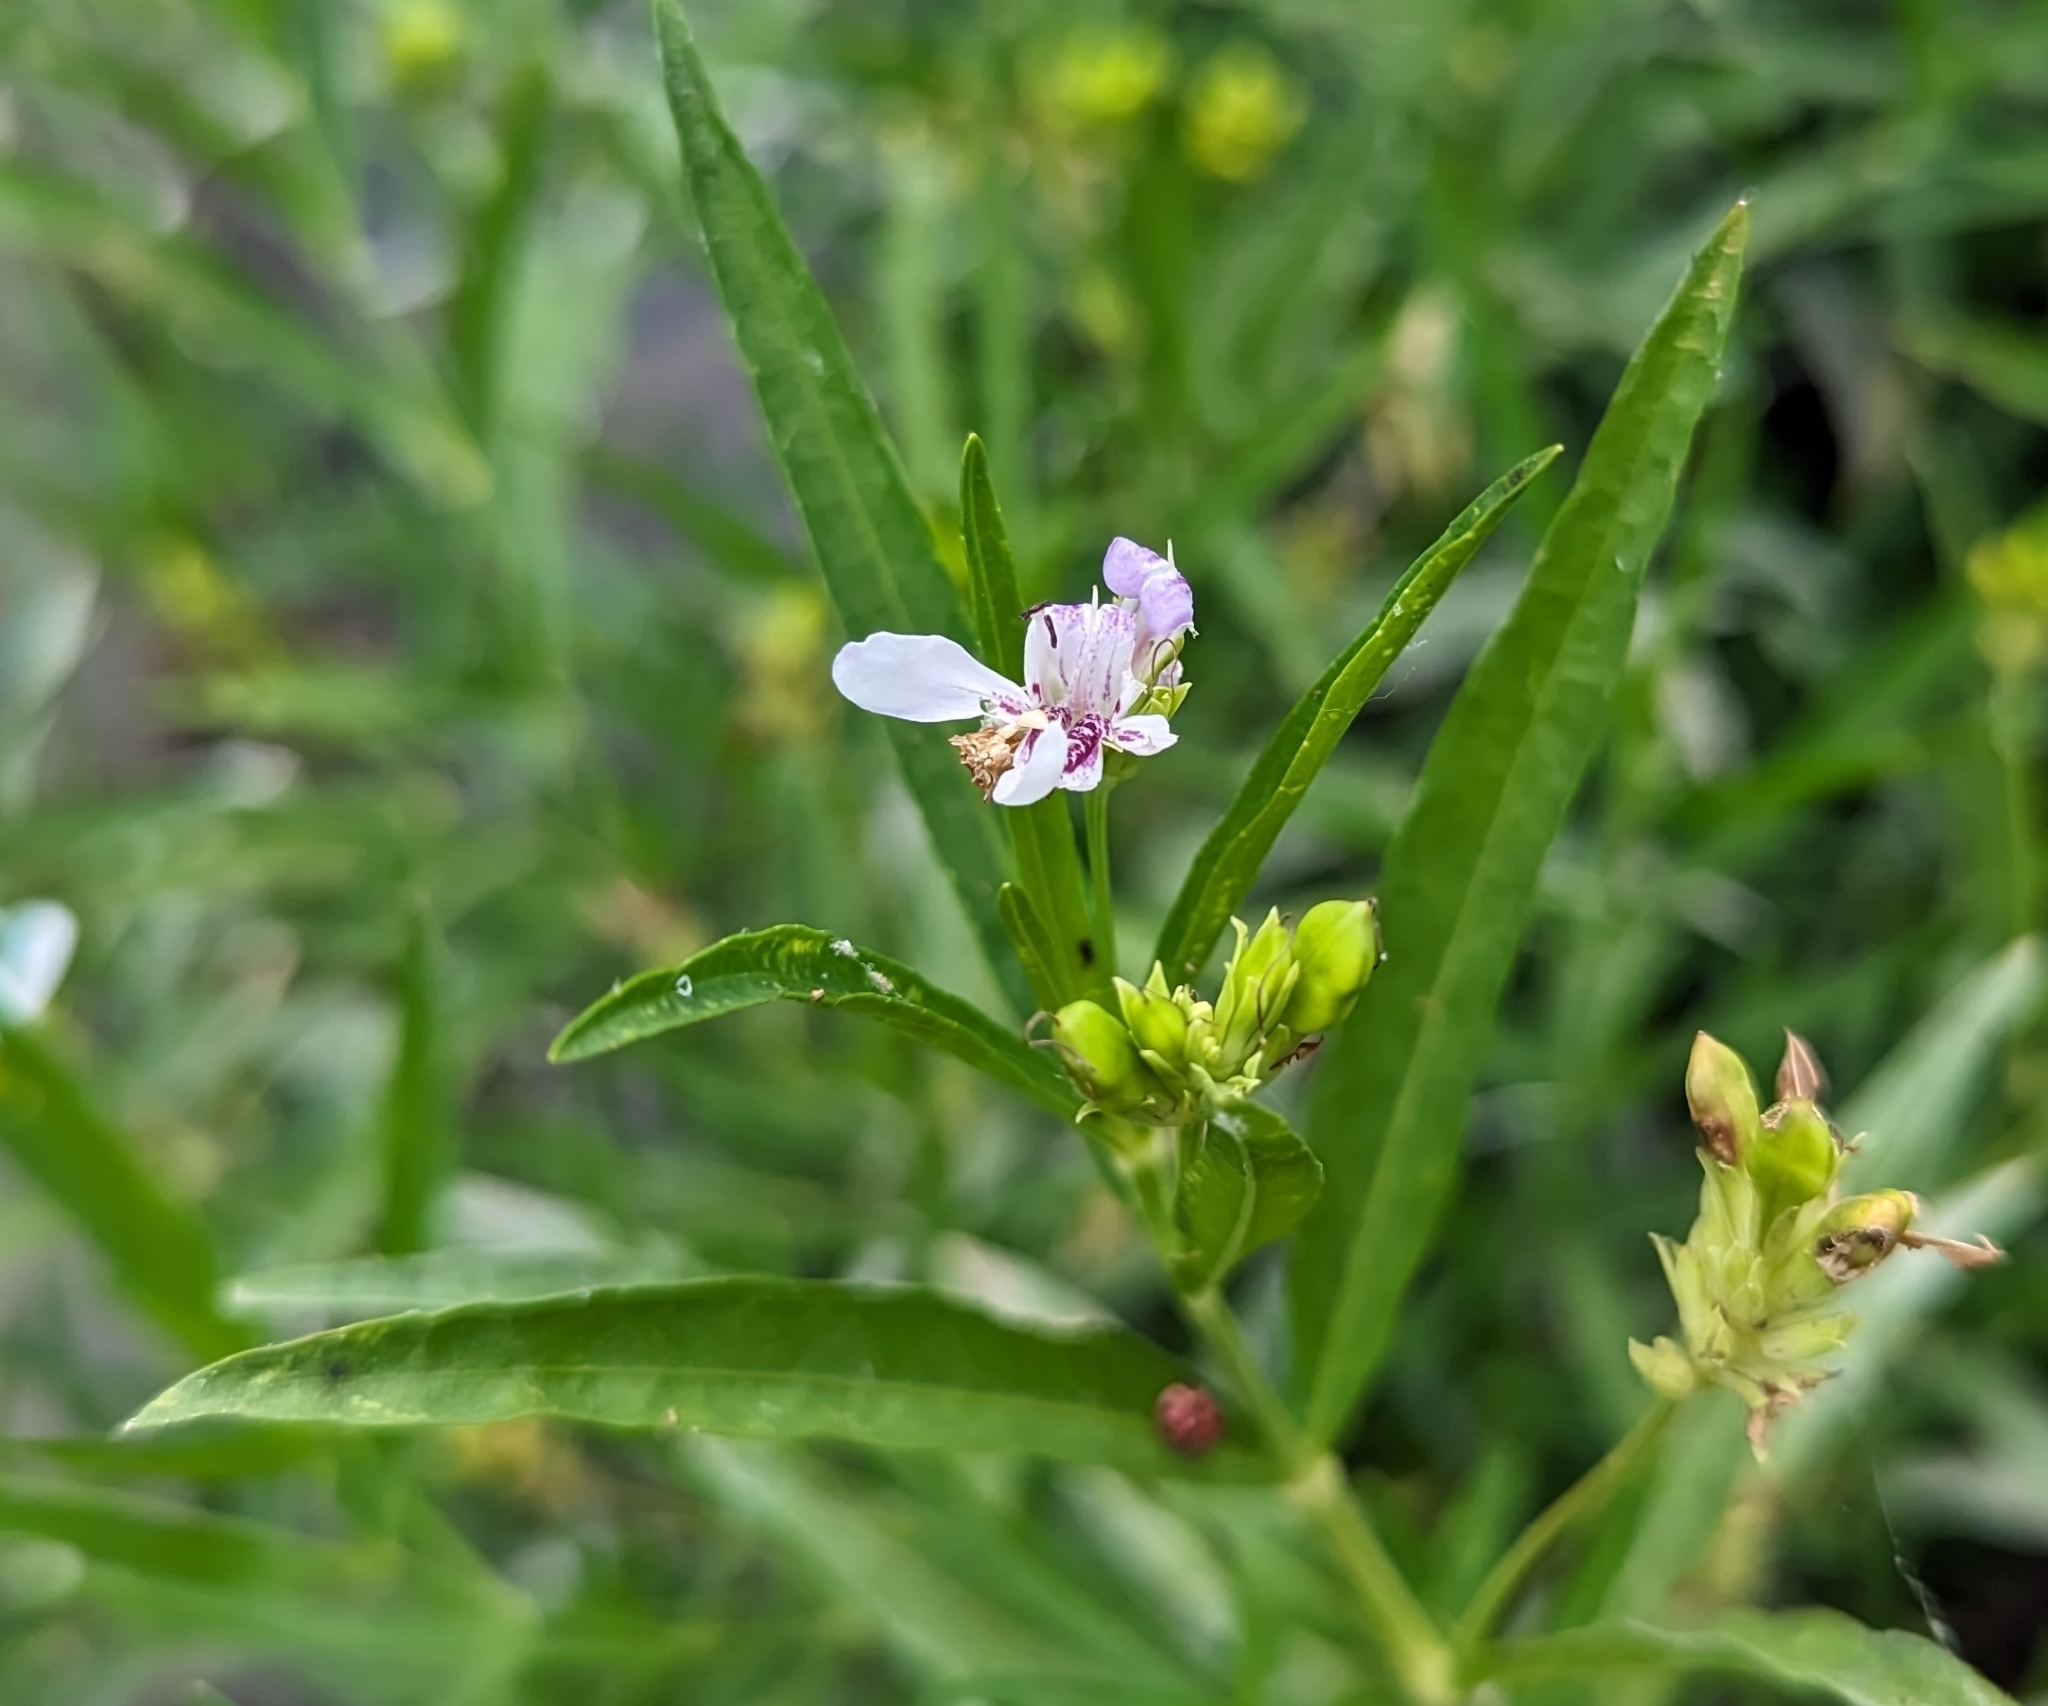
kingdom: Plantae
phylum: Tracheophyta
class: Magnoliopsida
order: Lamiales
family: Acanthaceae
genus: Dianthera
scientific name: Dianthera americana
